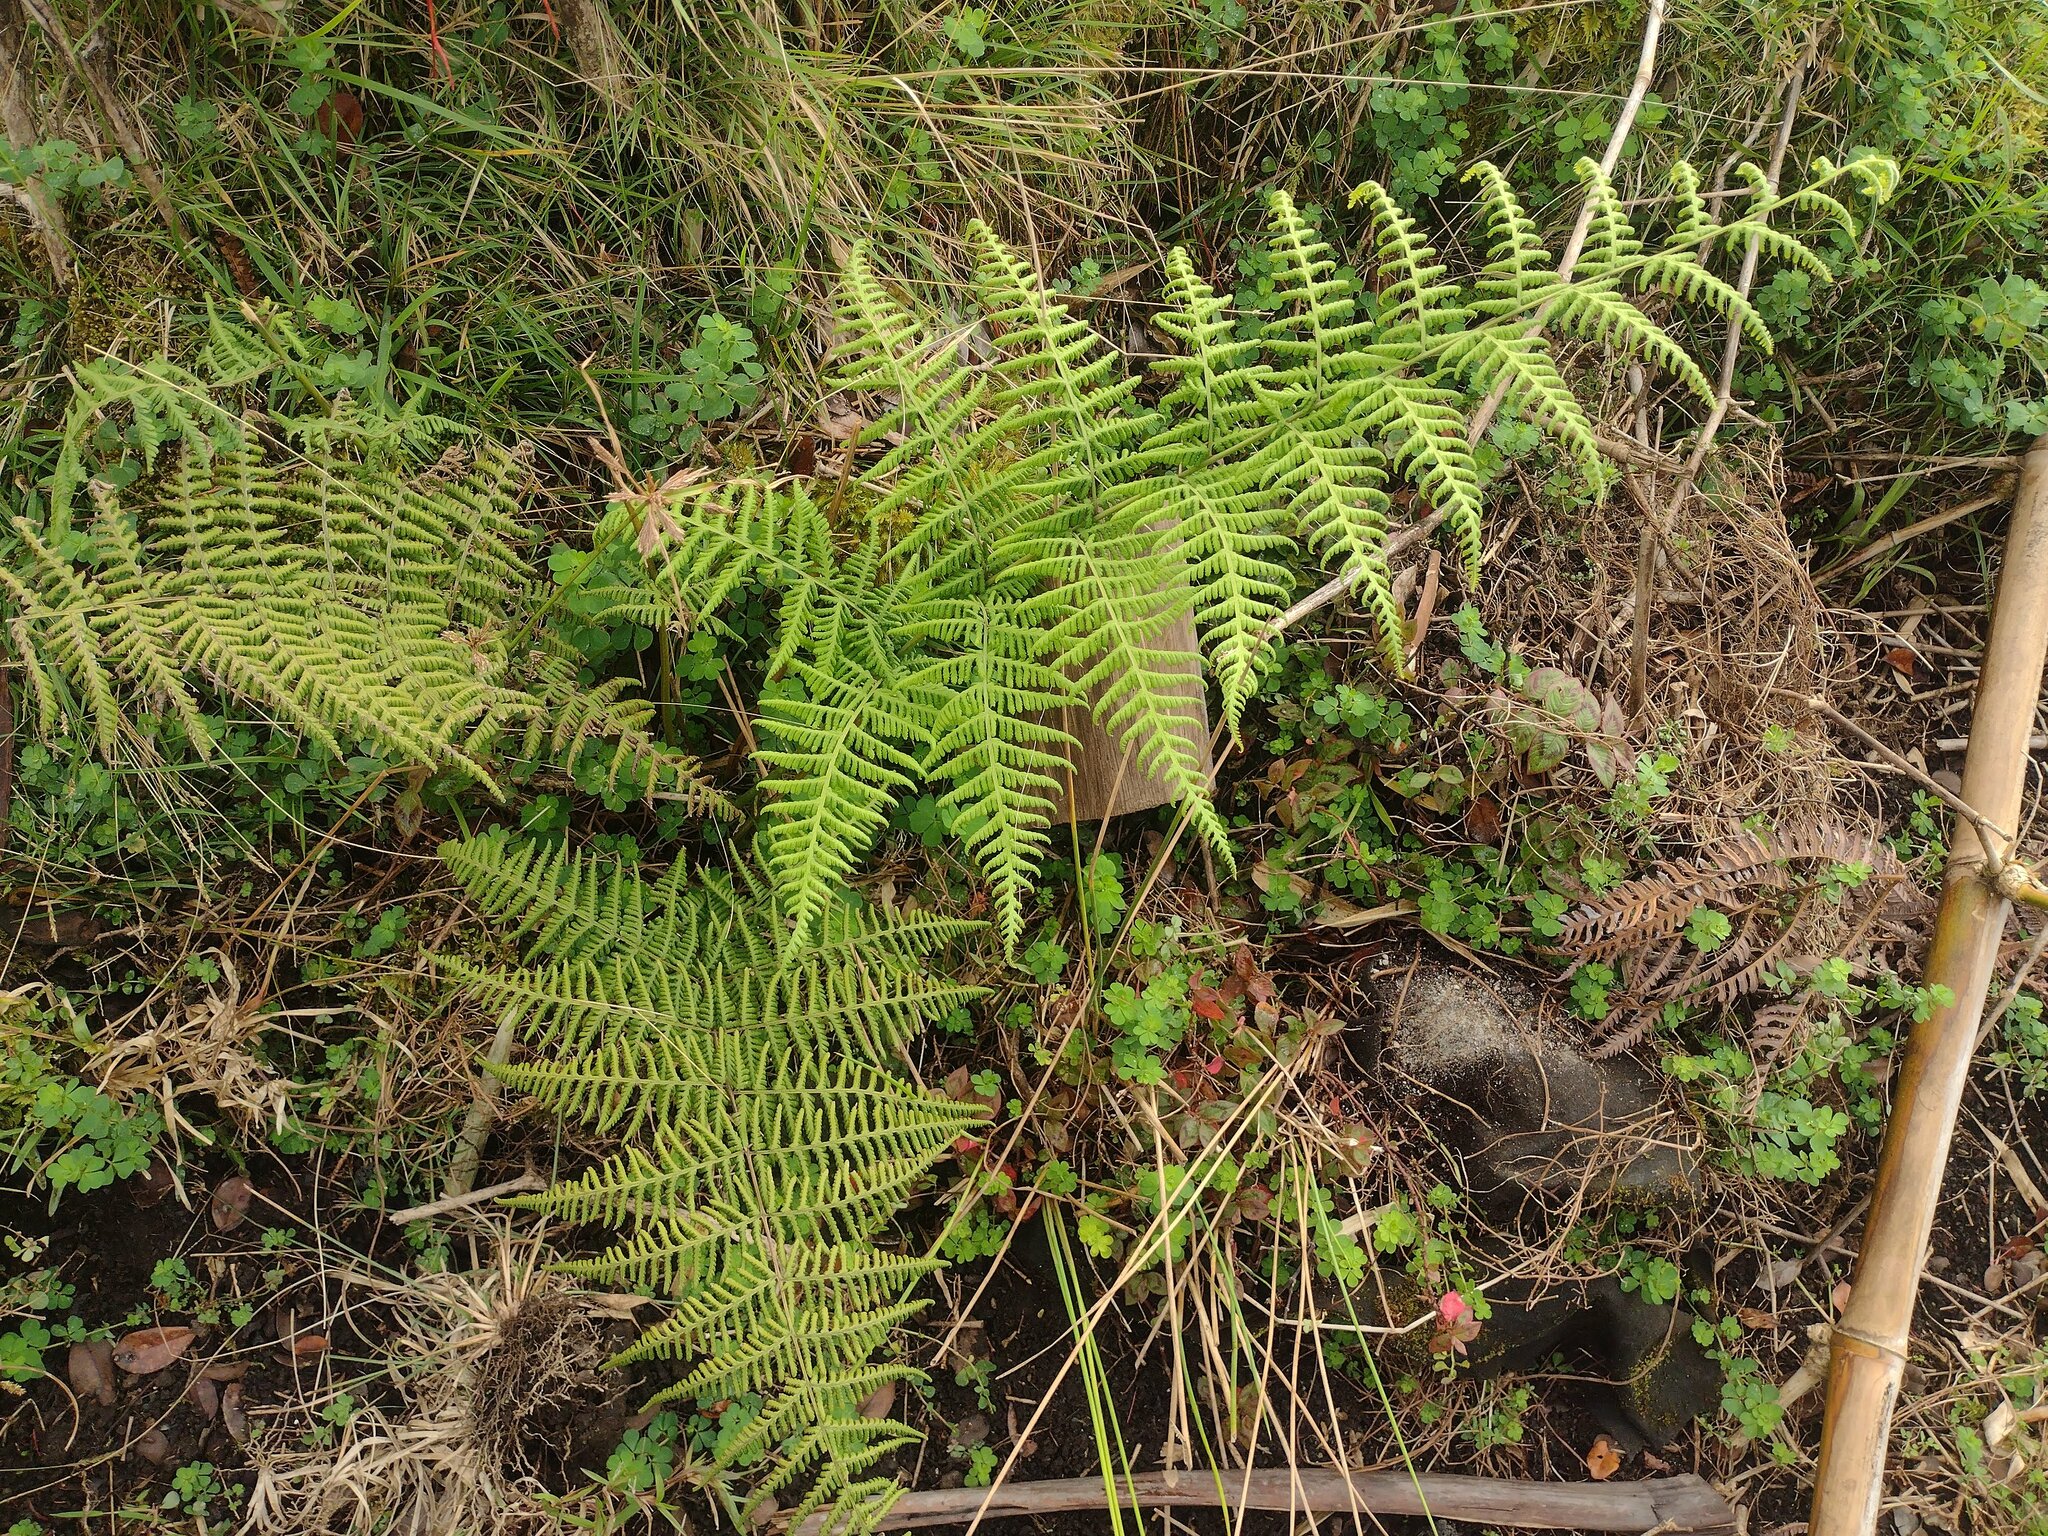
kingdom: Plantae
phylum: Tracheophyta
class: Polypodiopsida
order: Polypodiales
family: Thelypteridaceae
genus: Macrothelypteris
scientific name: Macrothelypteris torresiana
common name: Swordfern
